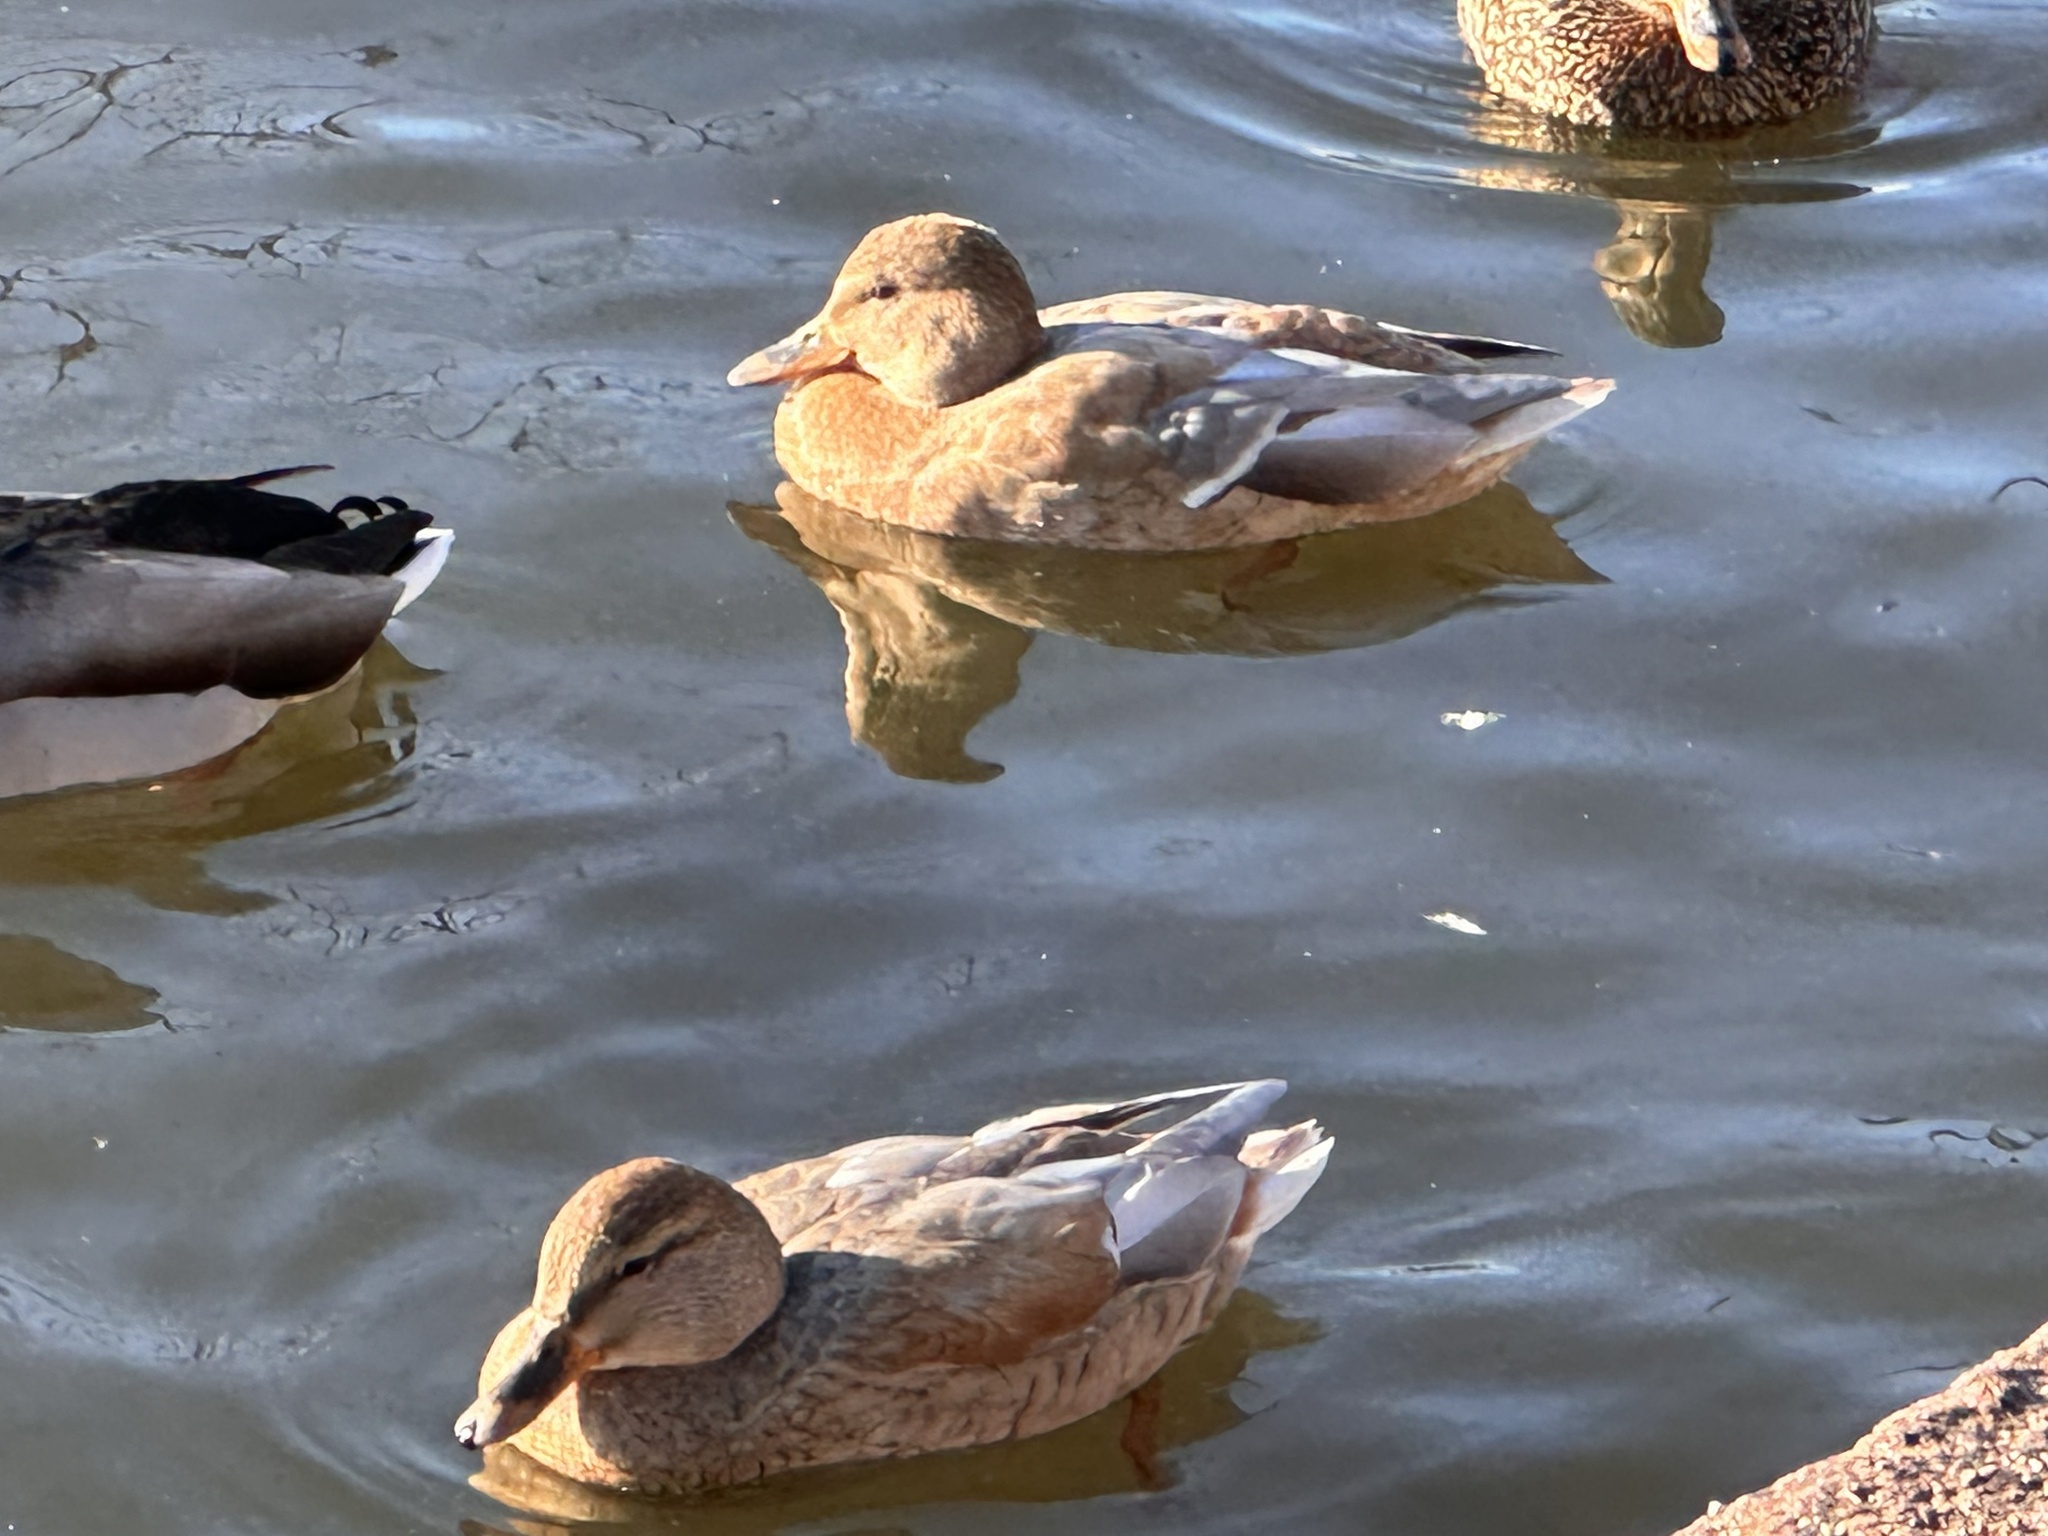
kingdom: Animalia
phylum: Chordata
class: Aves
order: Anseriformes
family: Anatidae
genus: Anas
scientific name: Anas platyrhynchos
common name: Mallard
